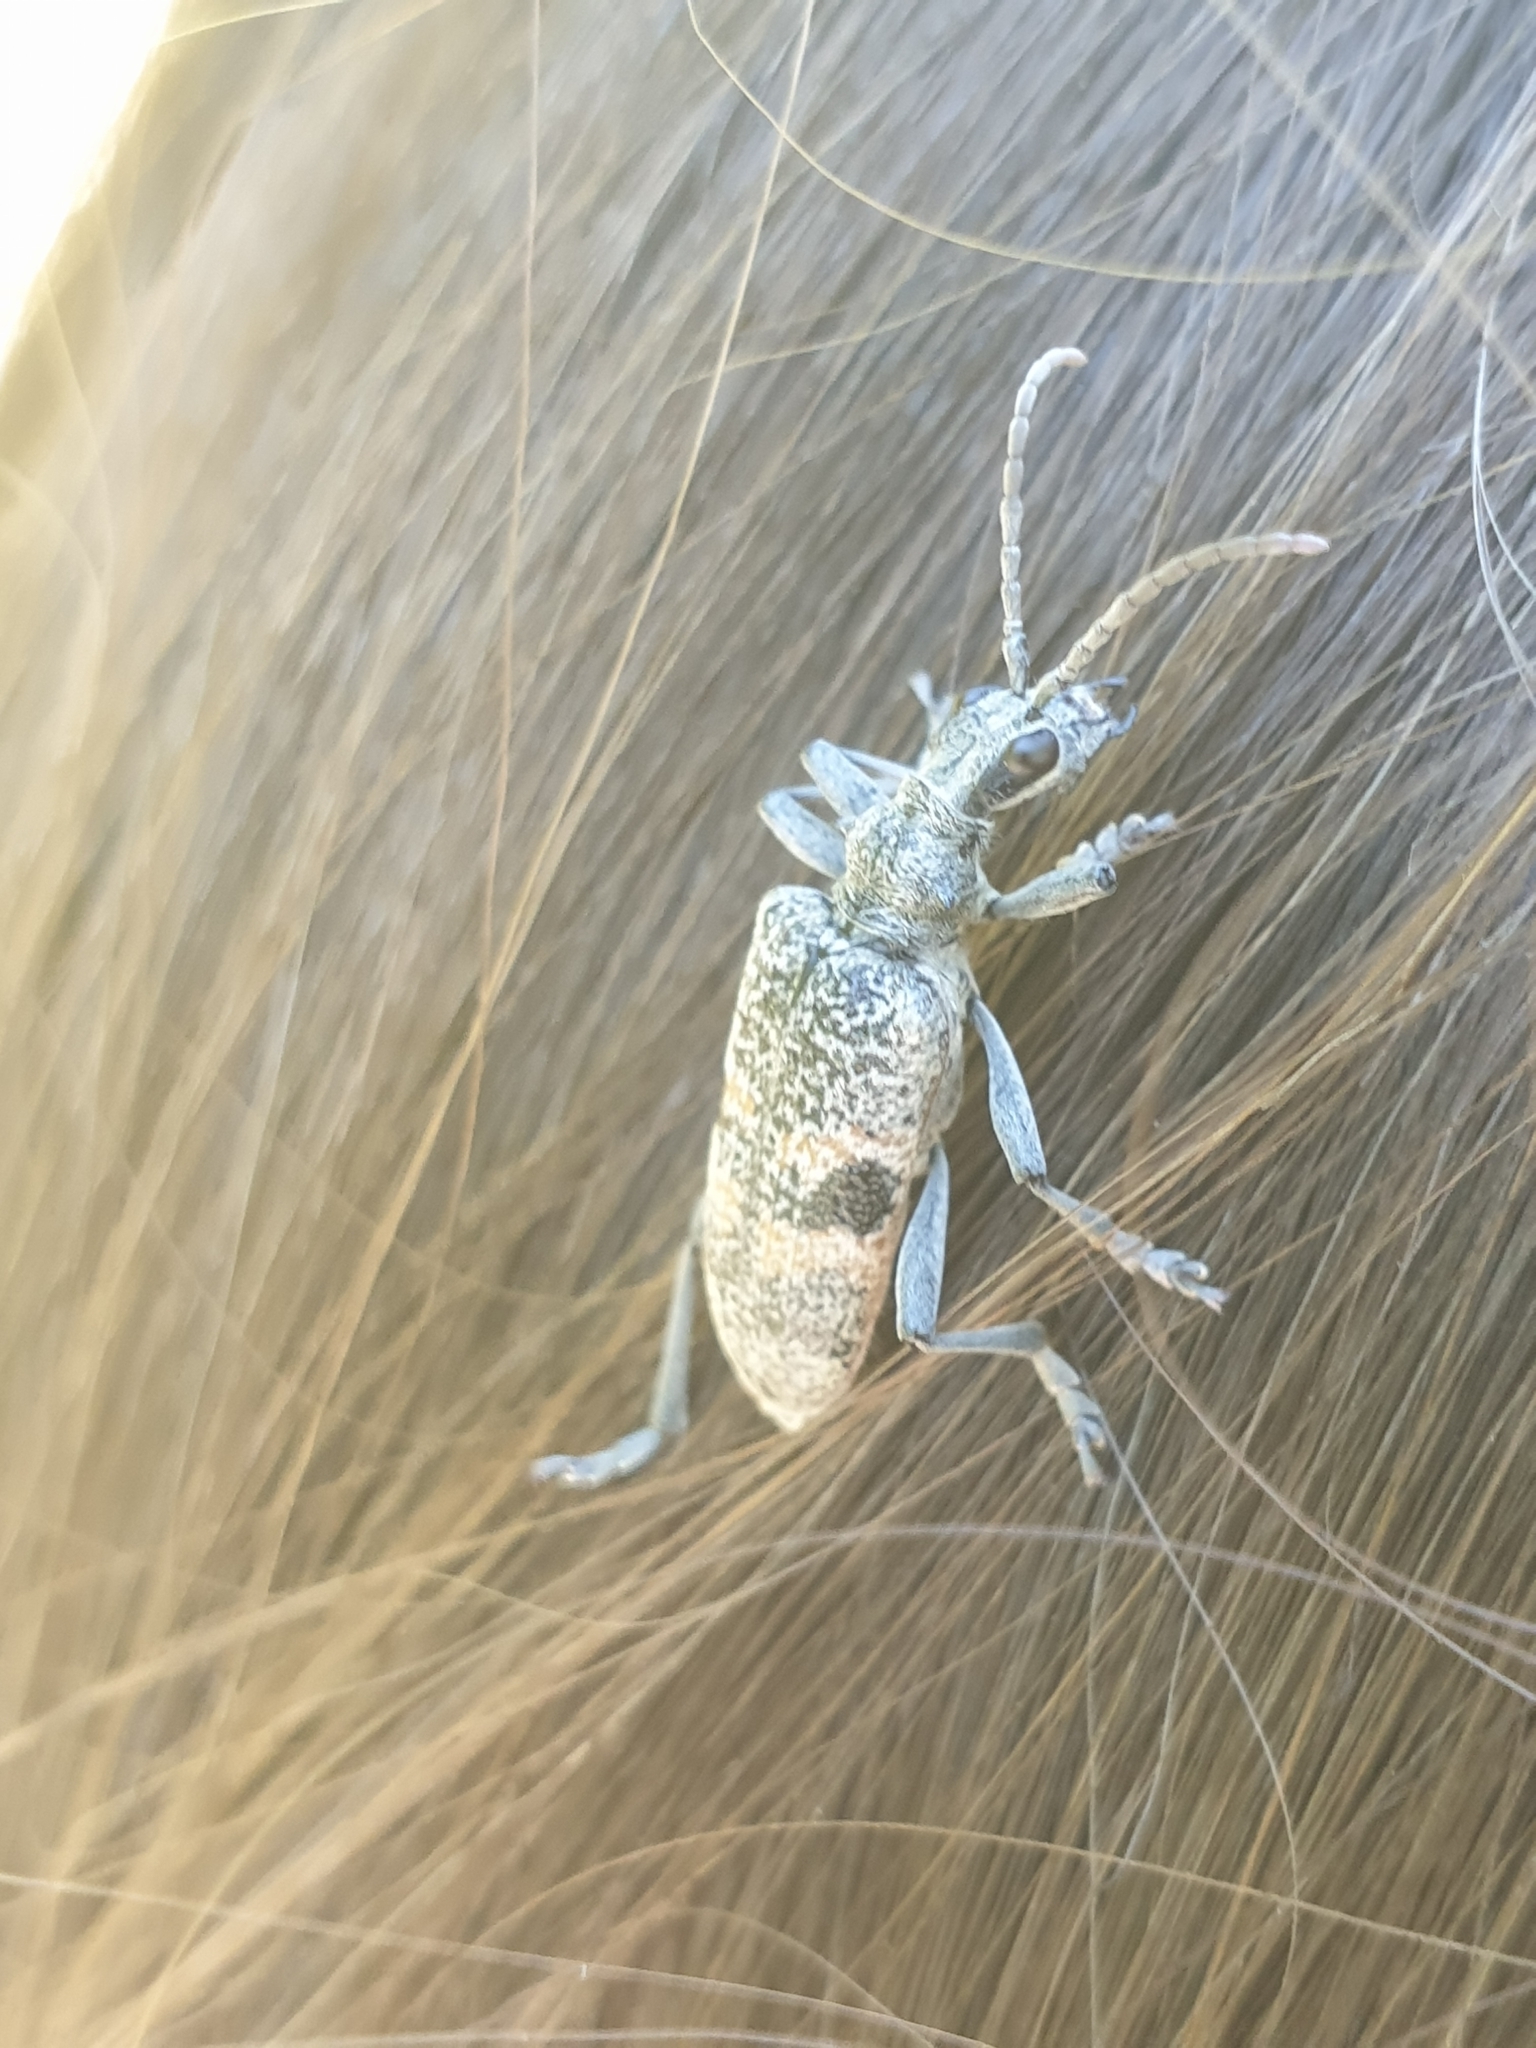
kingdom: Animalia
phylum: Arthropoda
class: Insecta
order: Coleoptera
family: Cerambycidae
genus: Rhagium
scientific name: Rhagium mordax
